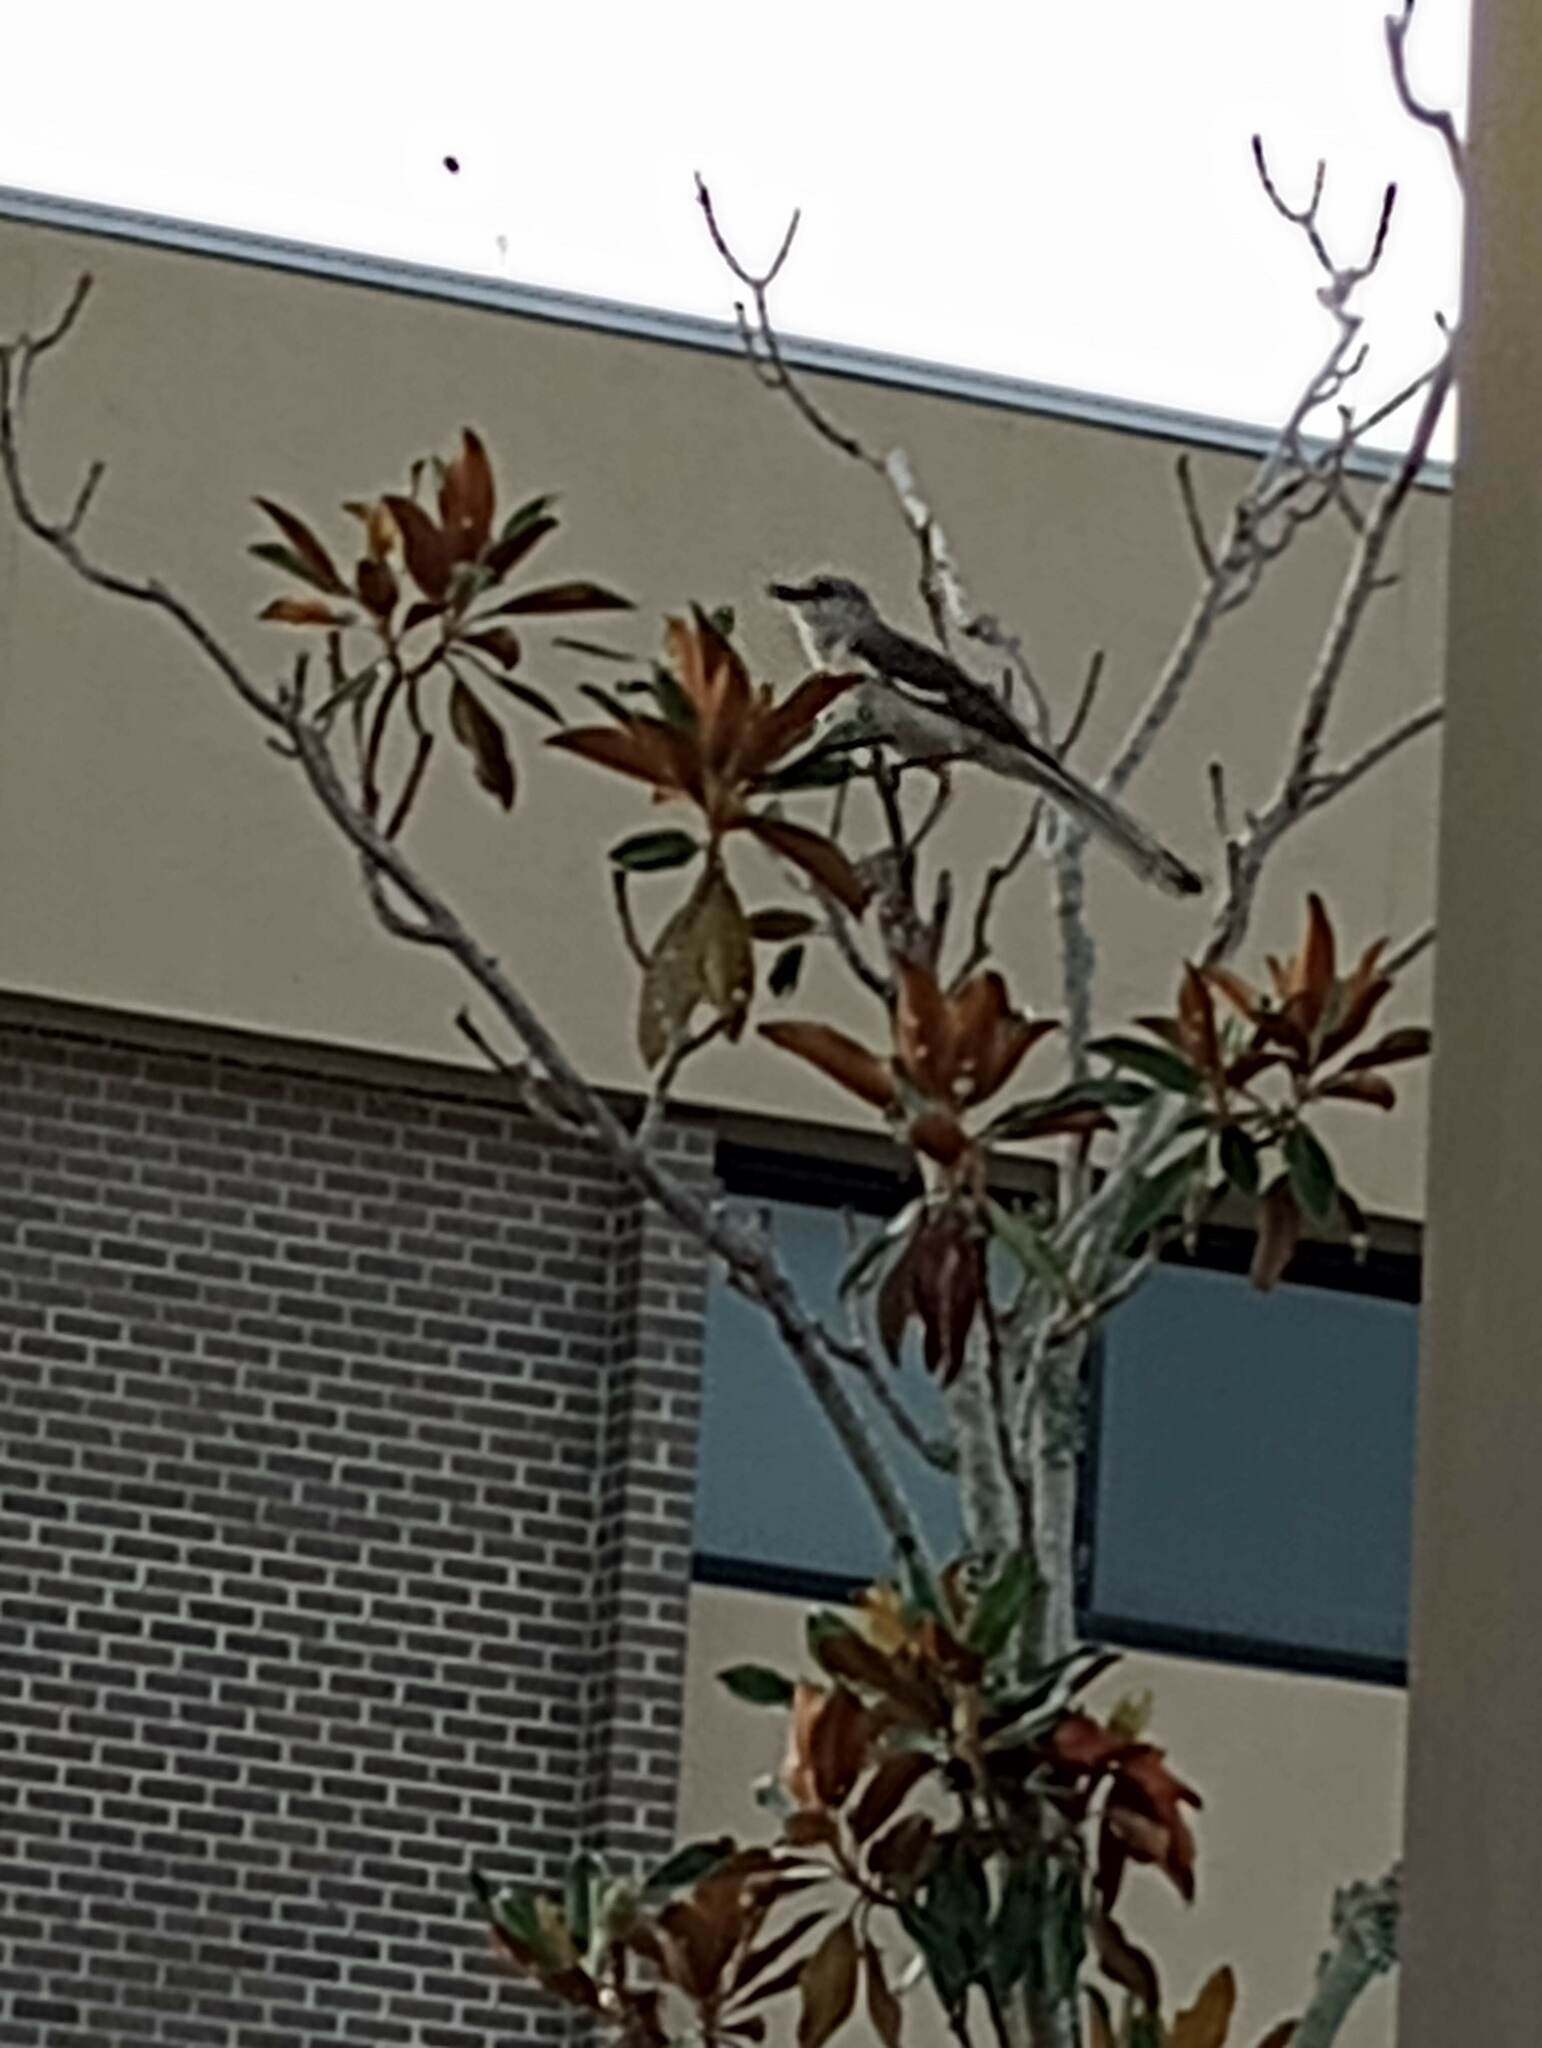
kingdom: Animalia
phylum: Chordata
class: Aves
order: Passeriformes
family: Mimidae
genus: Mimus
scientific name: Mimus polyglottos
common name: Northern mockingbird
